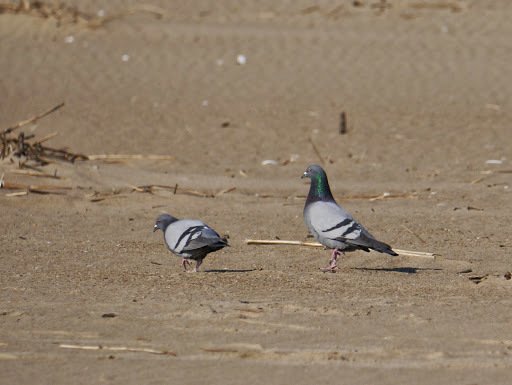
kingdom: Animalia
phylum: Chordata
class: Aves
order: Columbiformes
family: Columbidae
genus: Columba
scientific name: Columba livia
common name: Rock pigeon
